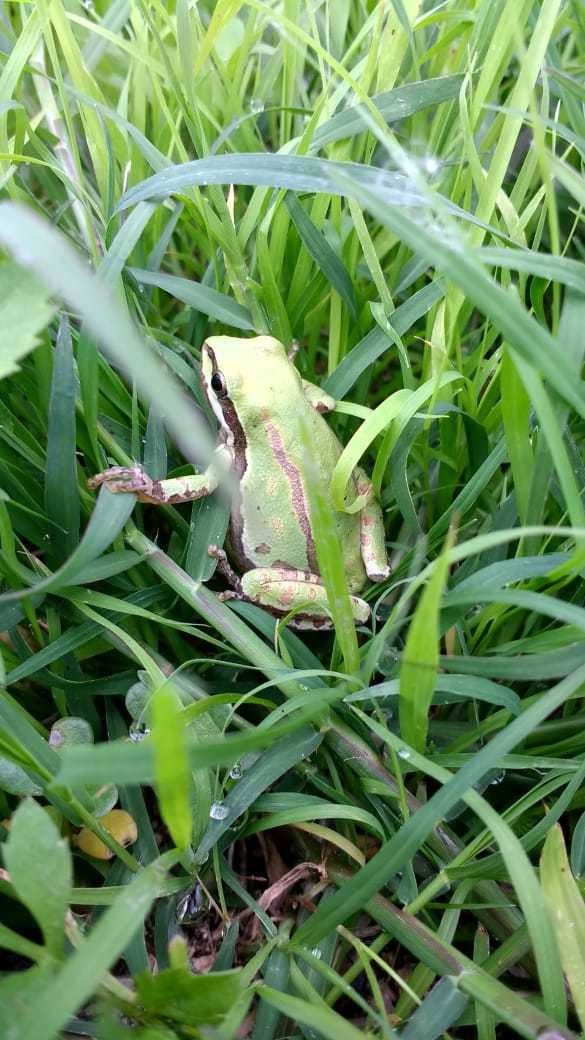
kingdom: Animalia
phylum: Chordata
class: Amphibia
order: Anura
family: Hylidae
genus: Dryophytes
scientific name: Dryophytes eximius
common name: Mountain treefrog
